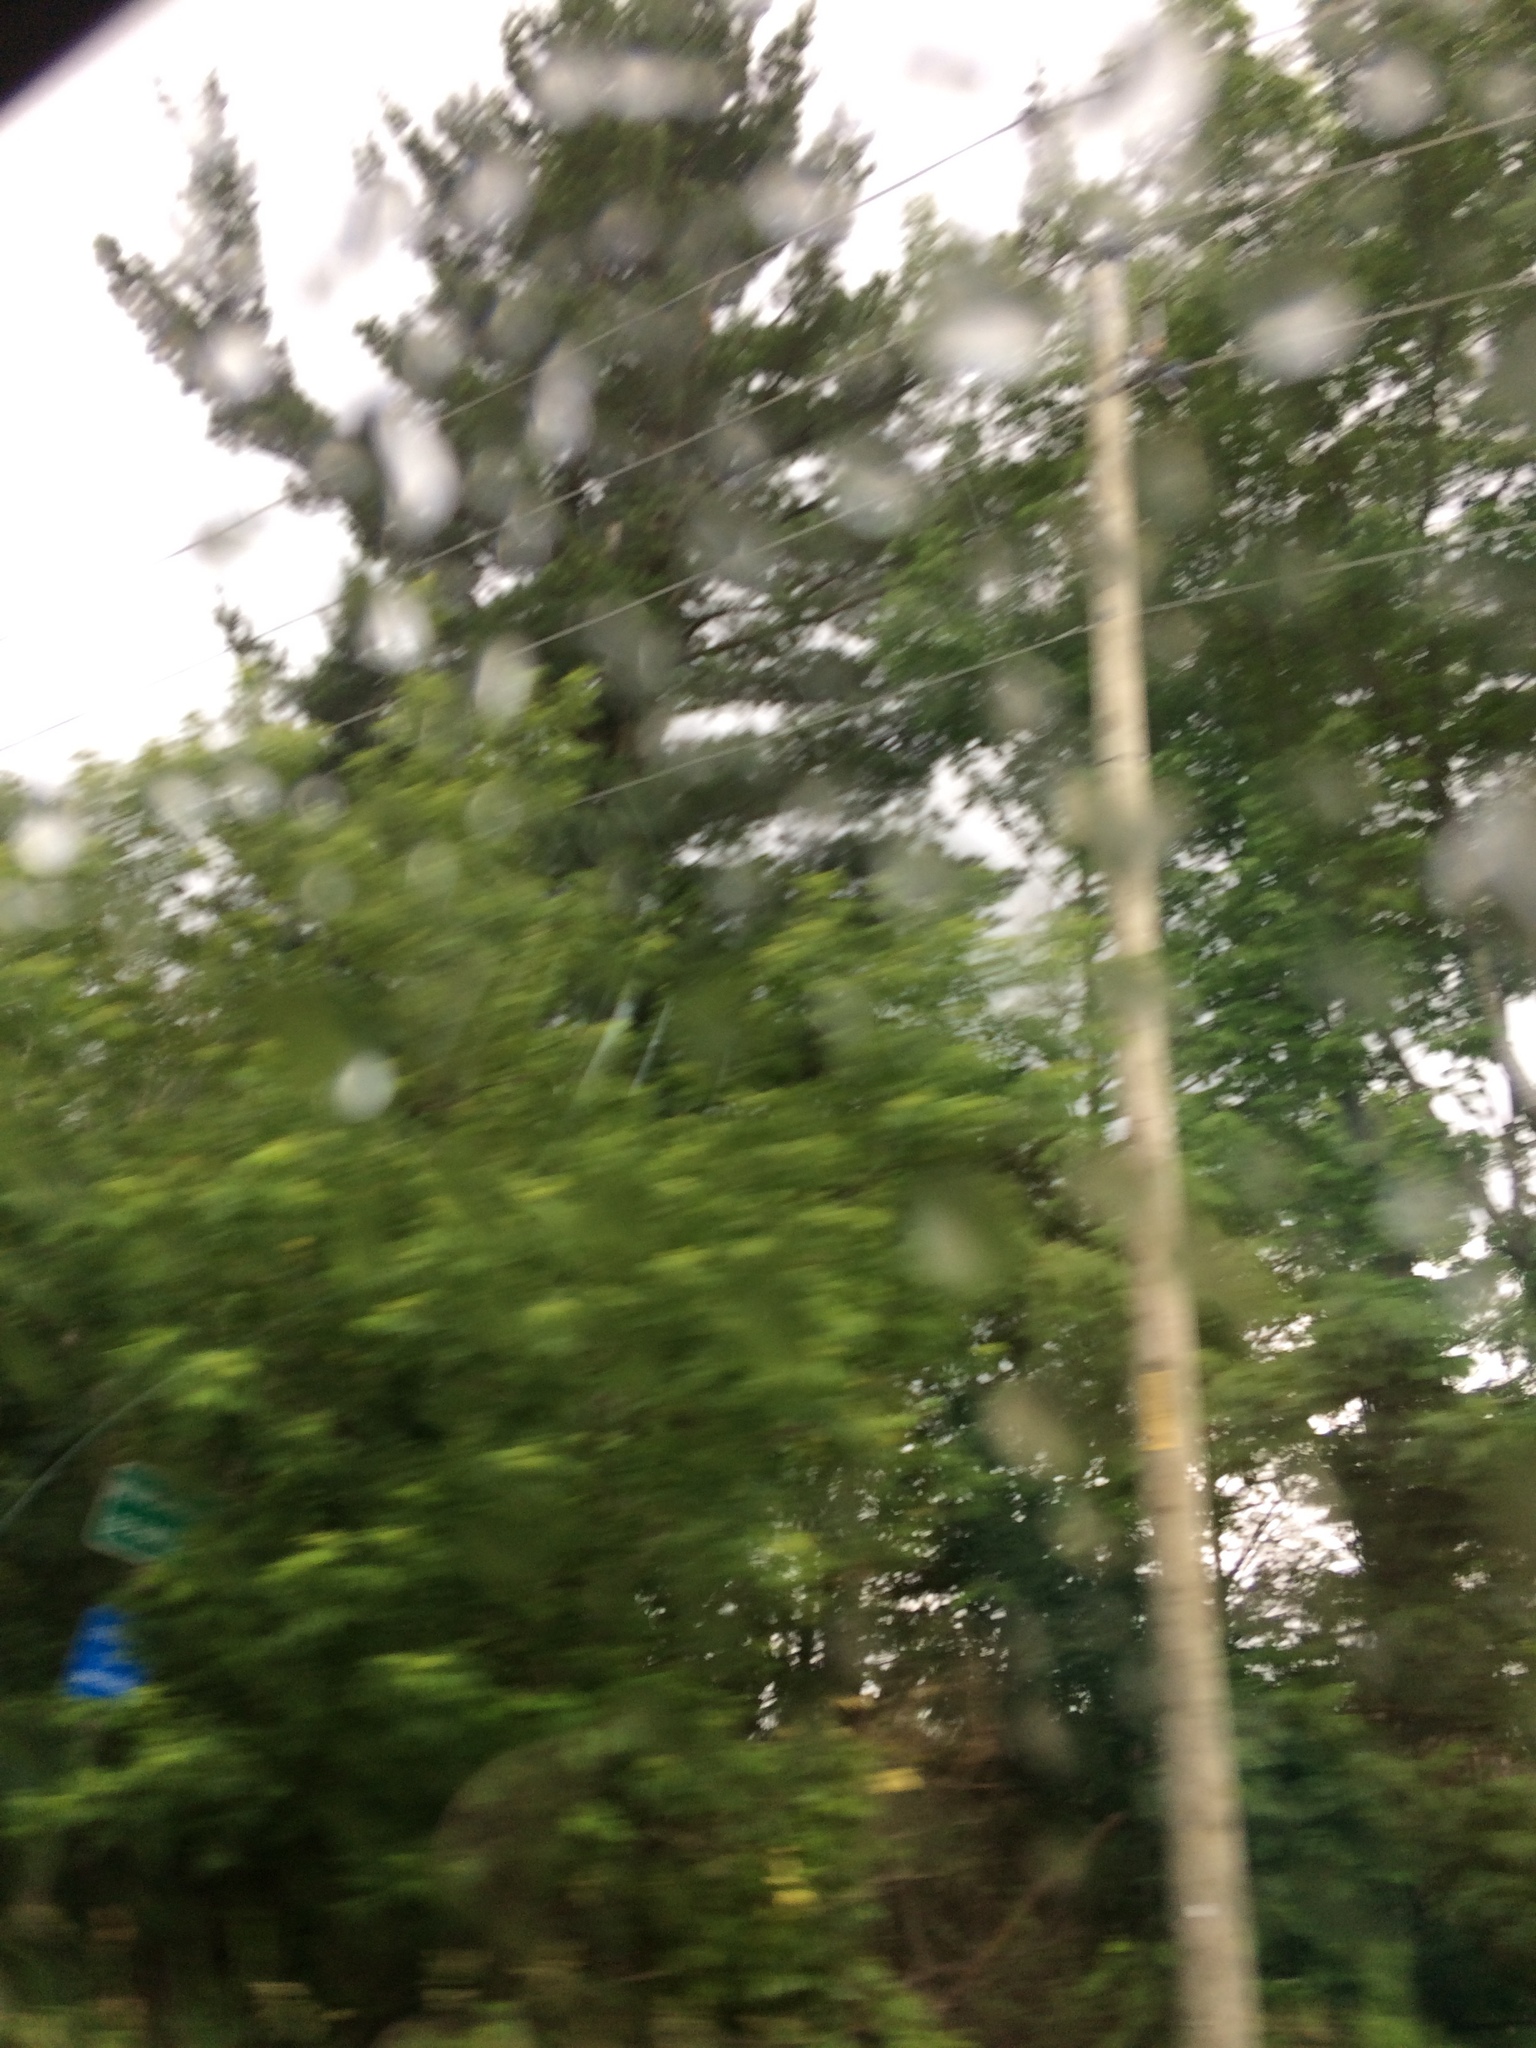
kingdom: Plantae
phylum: Tracheophyta
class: Pinopsida
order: Pinales
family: Pinaceae
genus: Pinus
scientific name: Pinus strobus
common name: Weymouth pine
